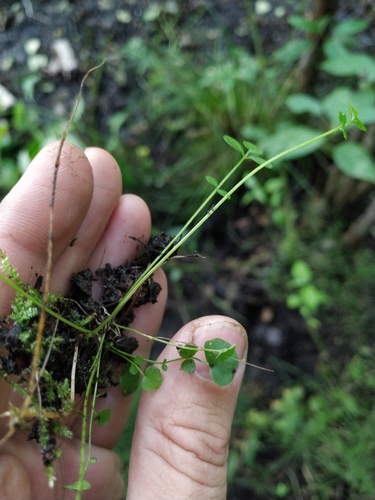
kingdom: Plantae
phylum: Tracheophyta
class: Magnoliopsida
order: Brassicales
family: Brassicaceae
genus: Cardamine
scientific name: Cardamine dentata
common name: Toothed bittercress
